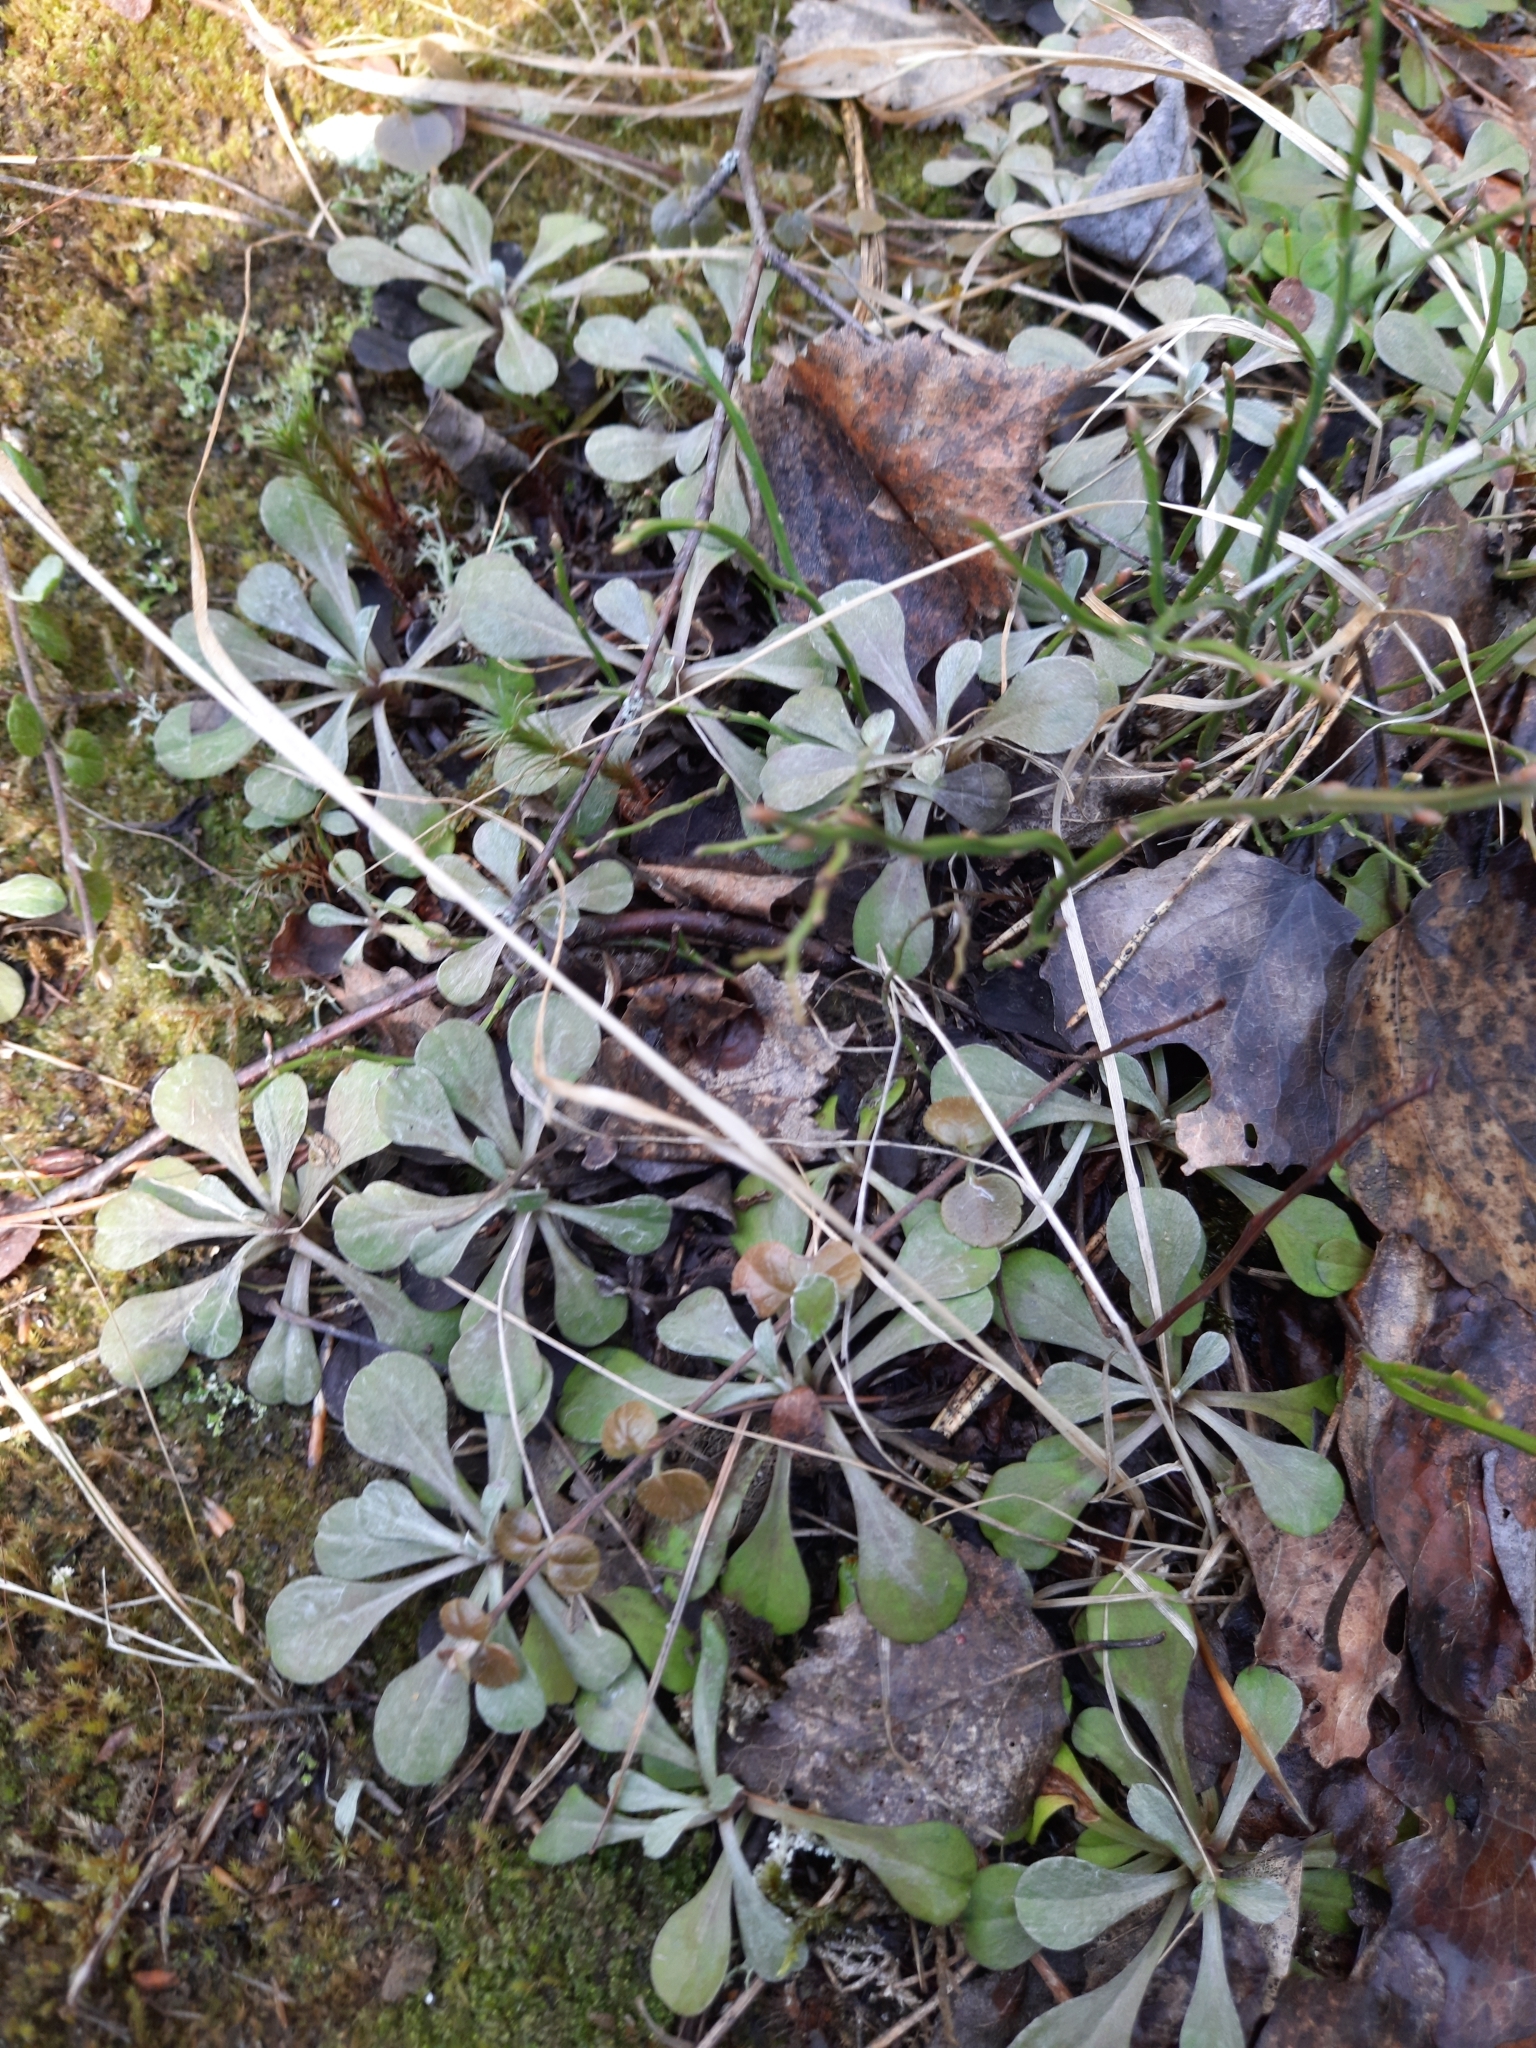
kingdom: Plantae
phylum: Tracheophyta
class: Magnoliopsida
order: Asterales
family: Asteraceae
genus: Antennaria
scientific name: Antennaria dioica
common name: Mountain everlasting
